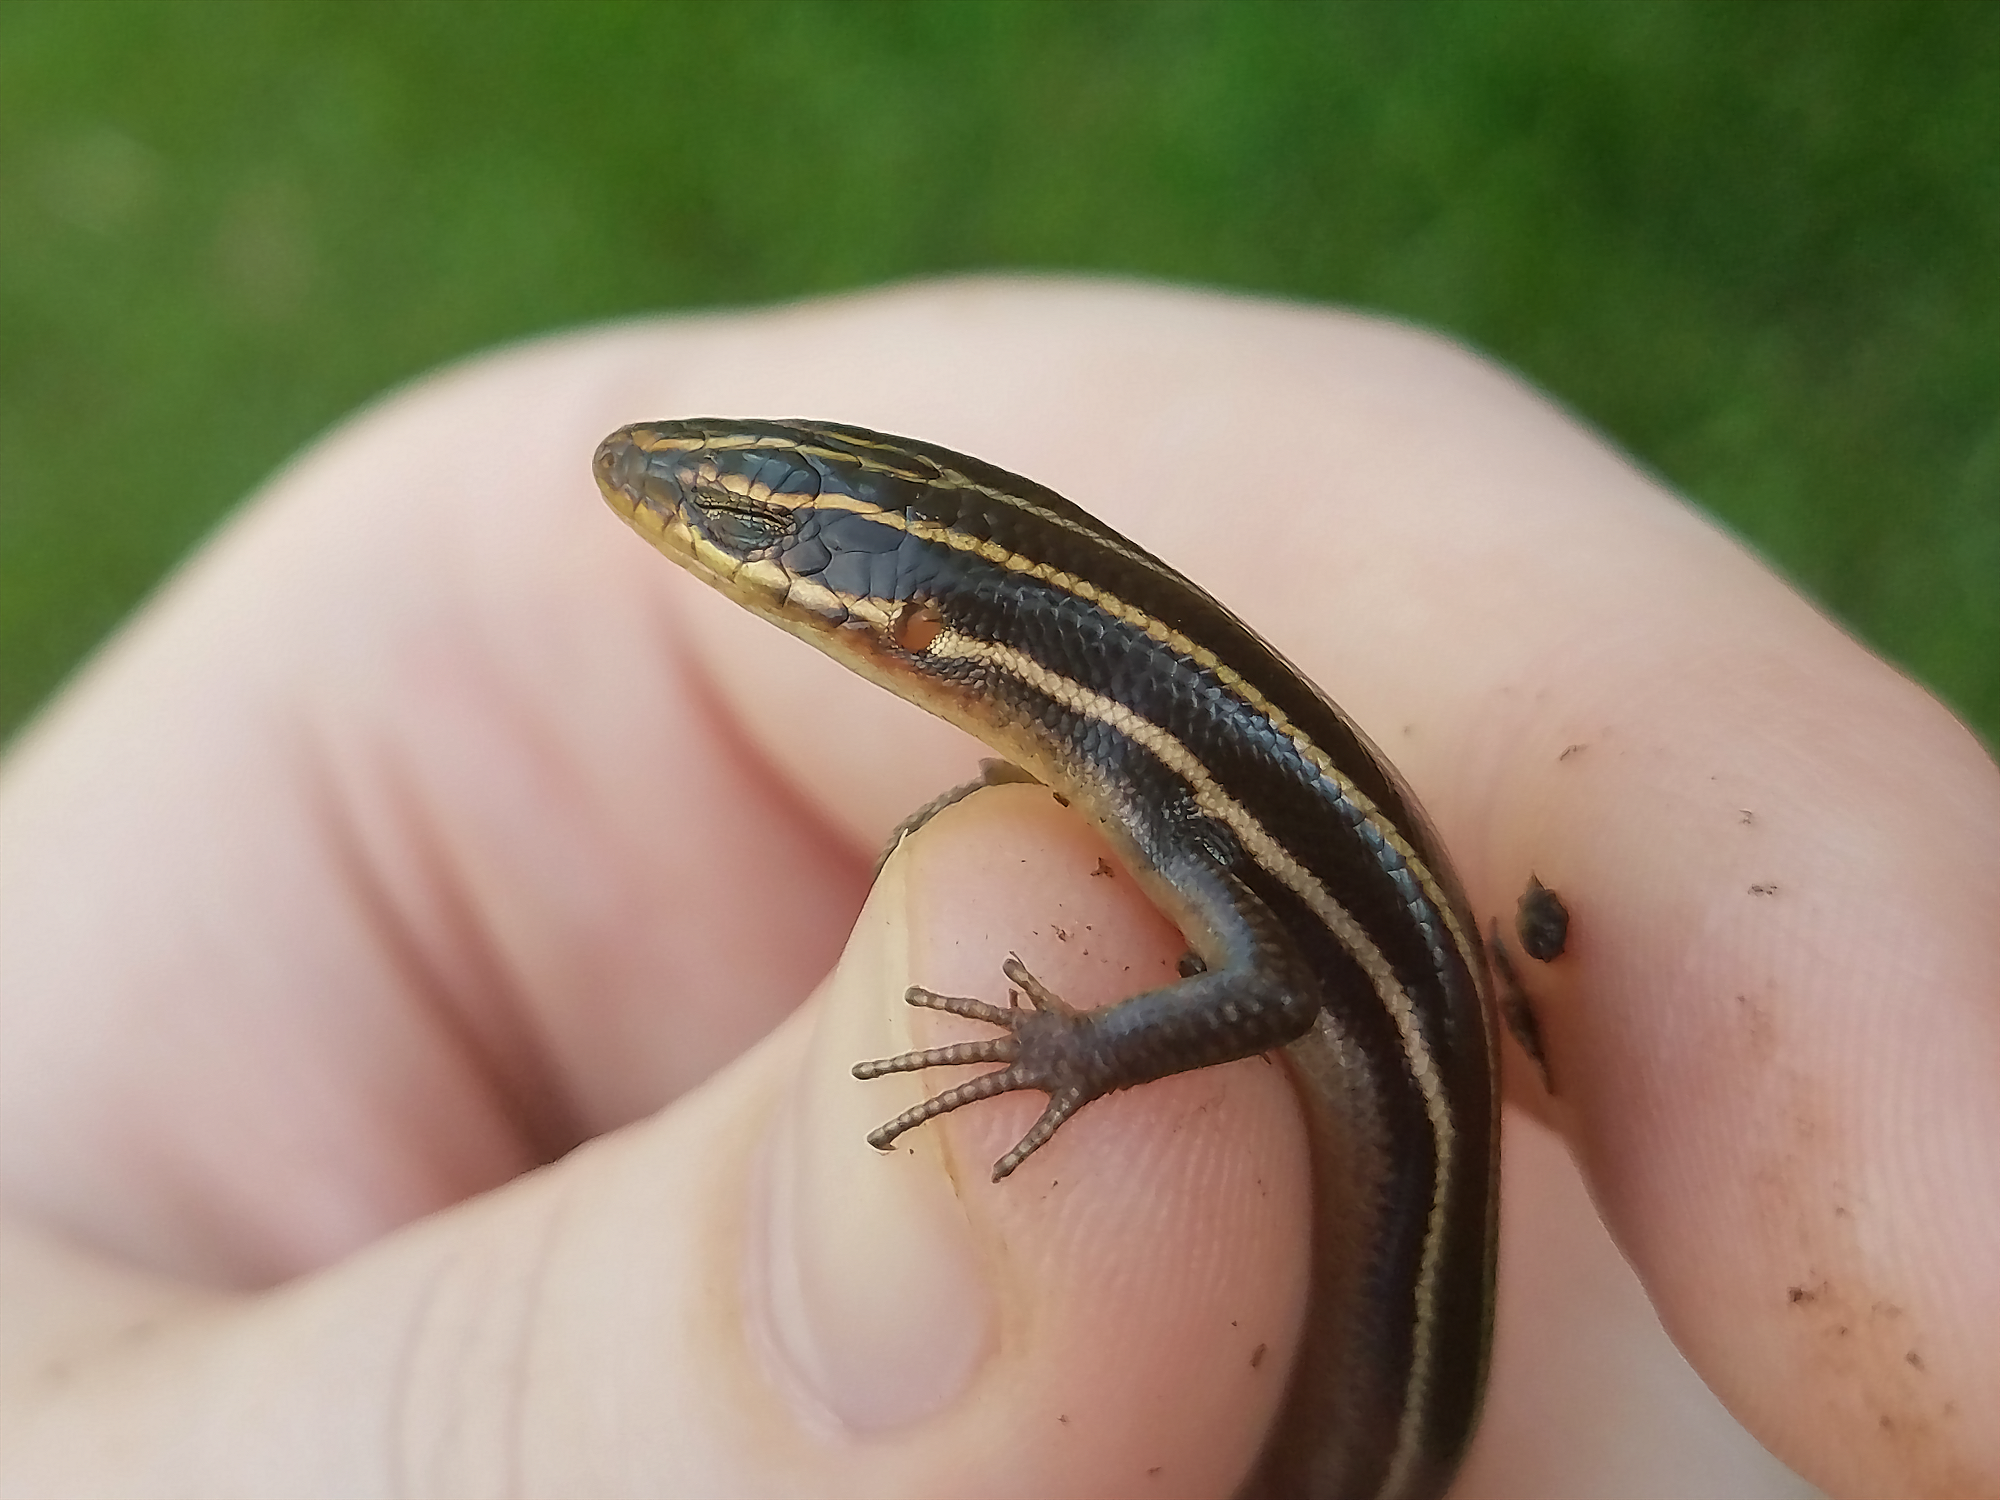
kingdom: Animalia
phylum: Chordata
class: Squamata
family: Scincidae
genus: Plestiodon
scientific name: Plestiodon fasciatus
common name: Five-lined skink
